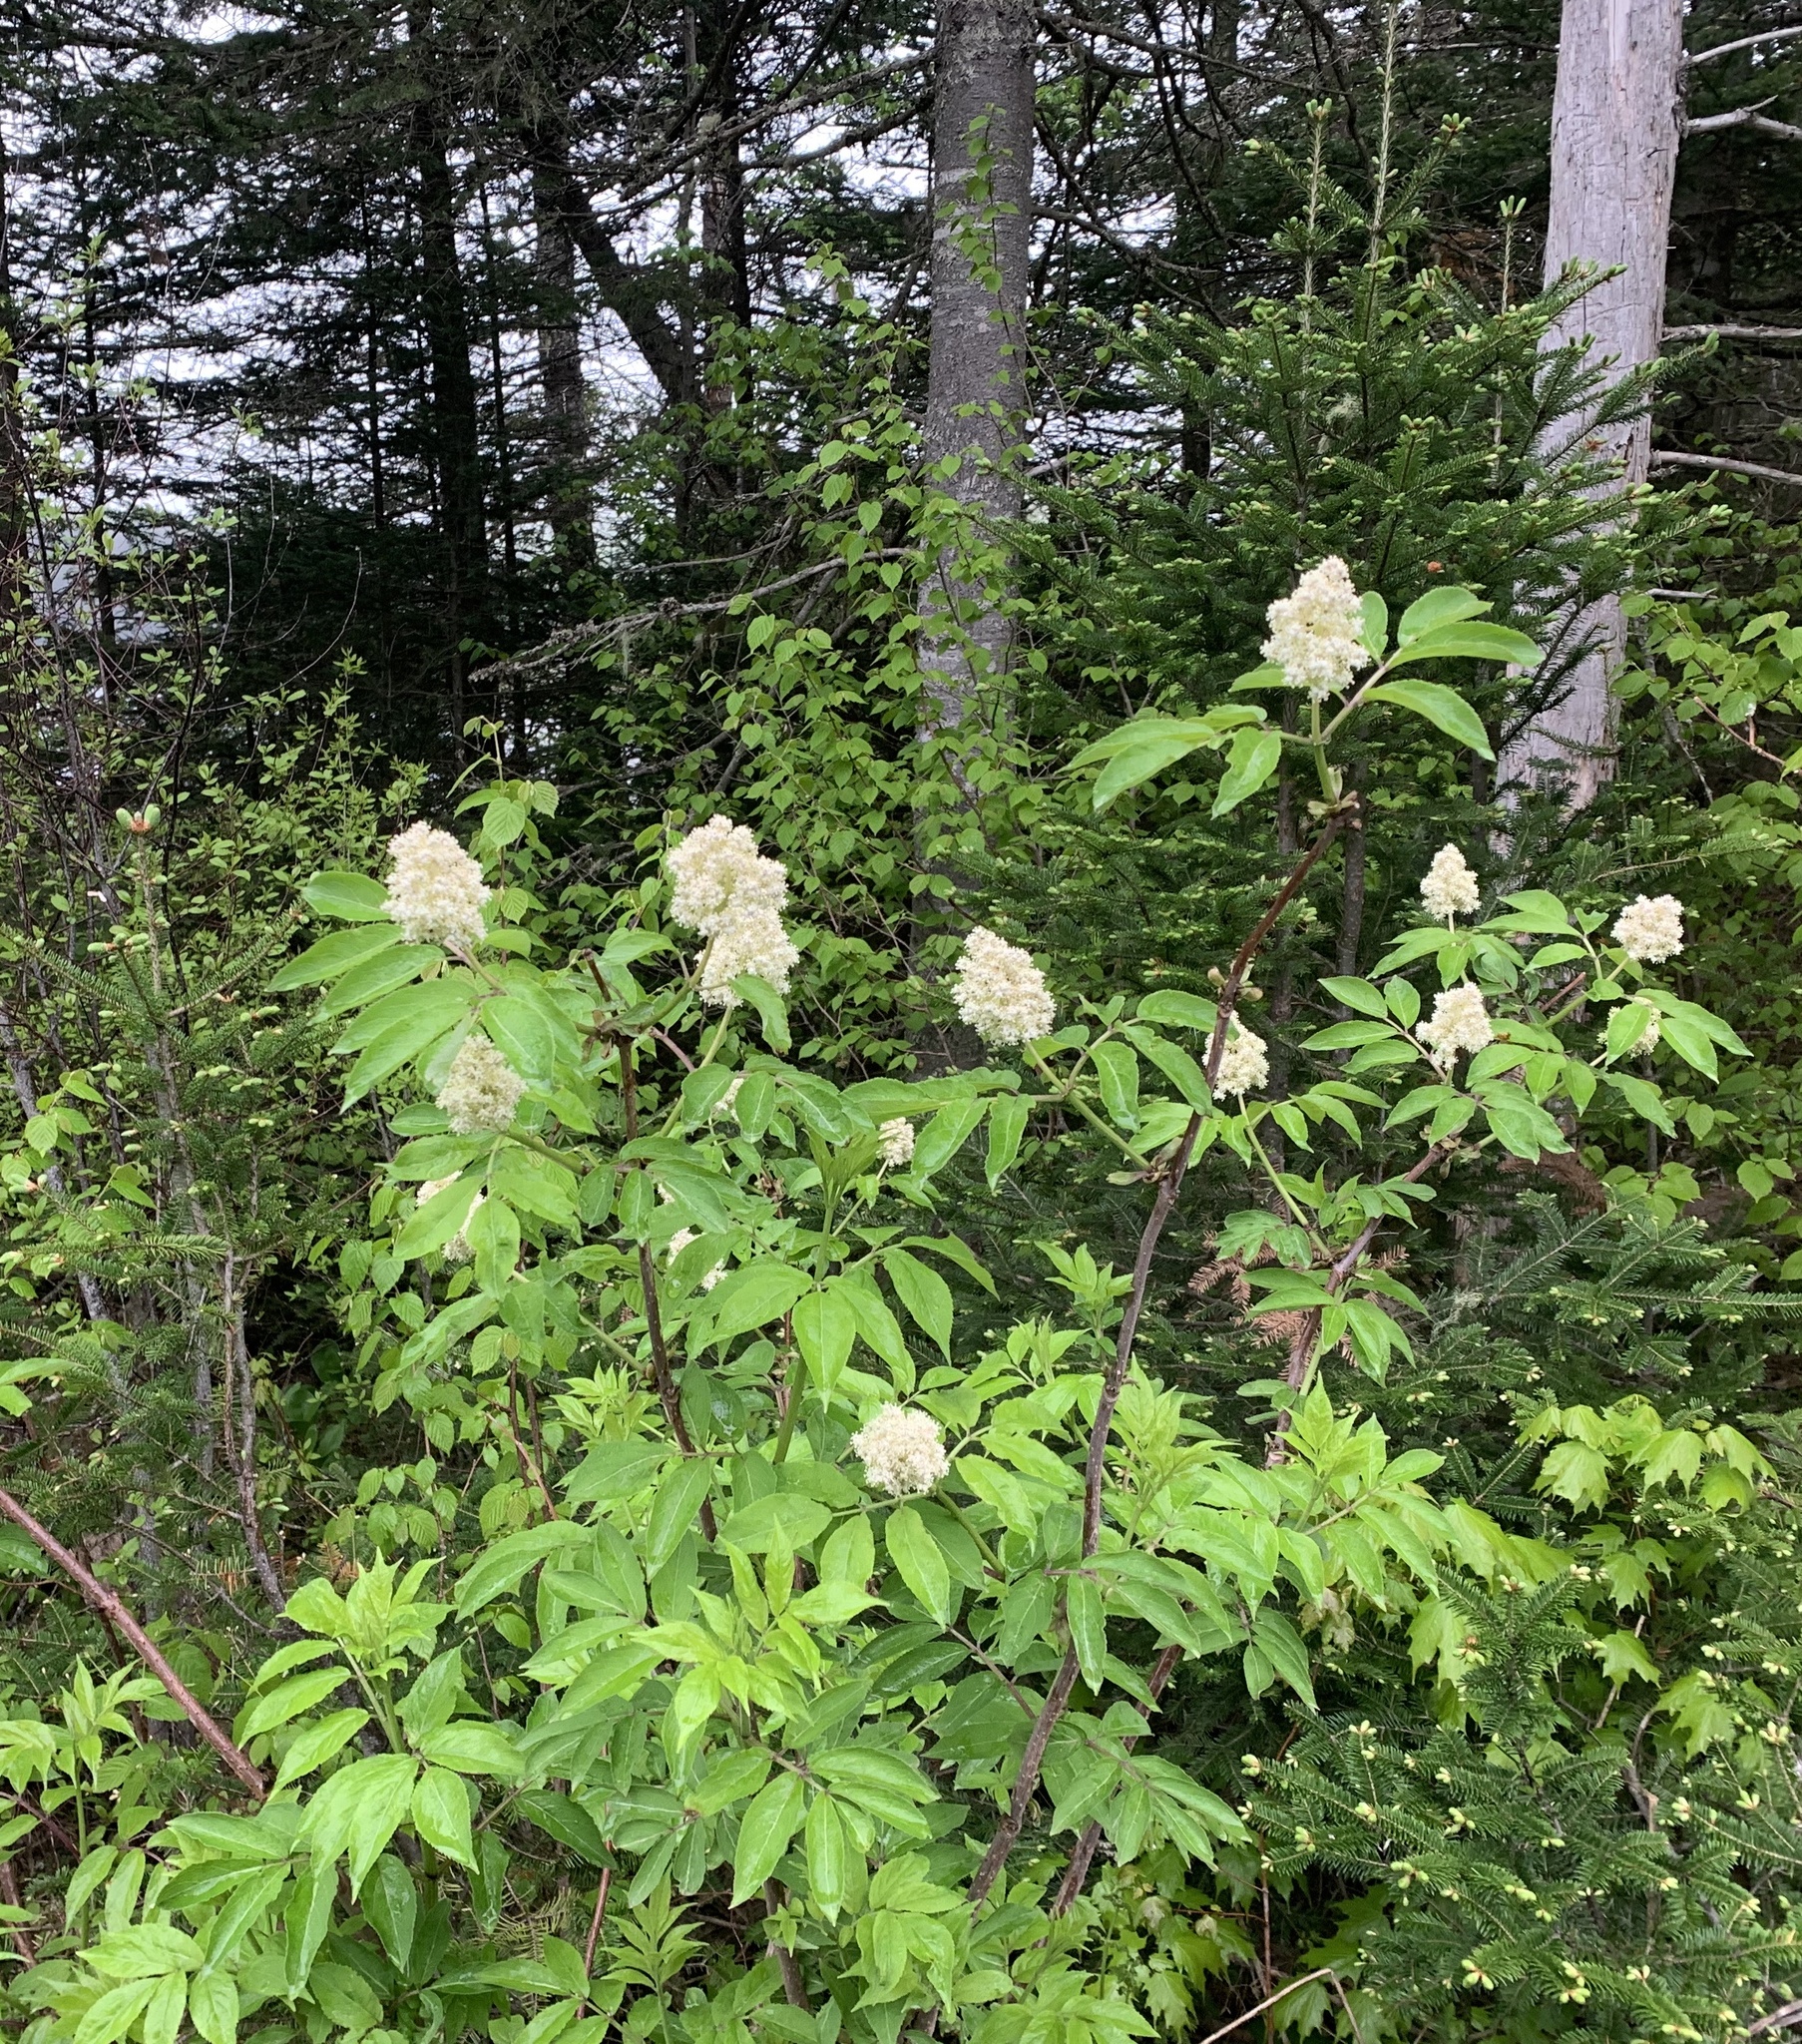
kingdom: Plantae
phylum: Tracheophyta
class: Magnoliopsida
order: Dipsacales
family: Viburnaceae
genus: Sambucus
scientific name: Sambucus racemosa
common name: Red-berried elder
